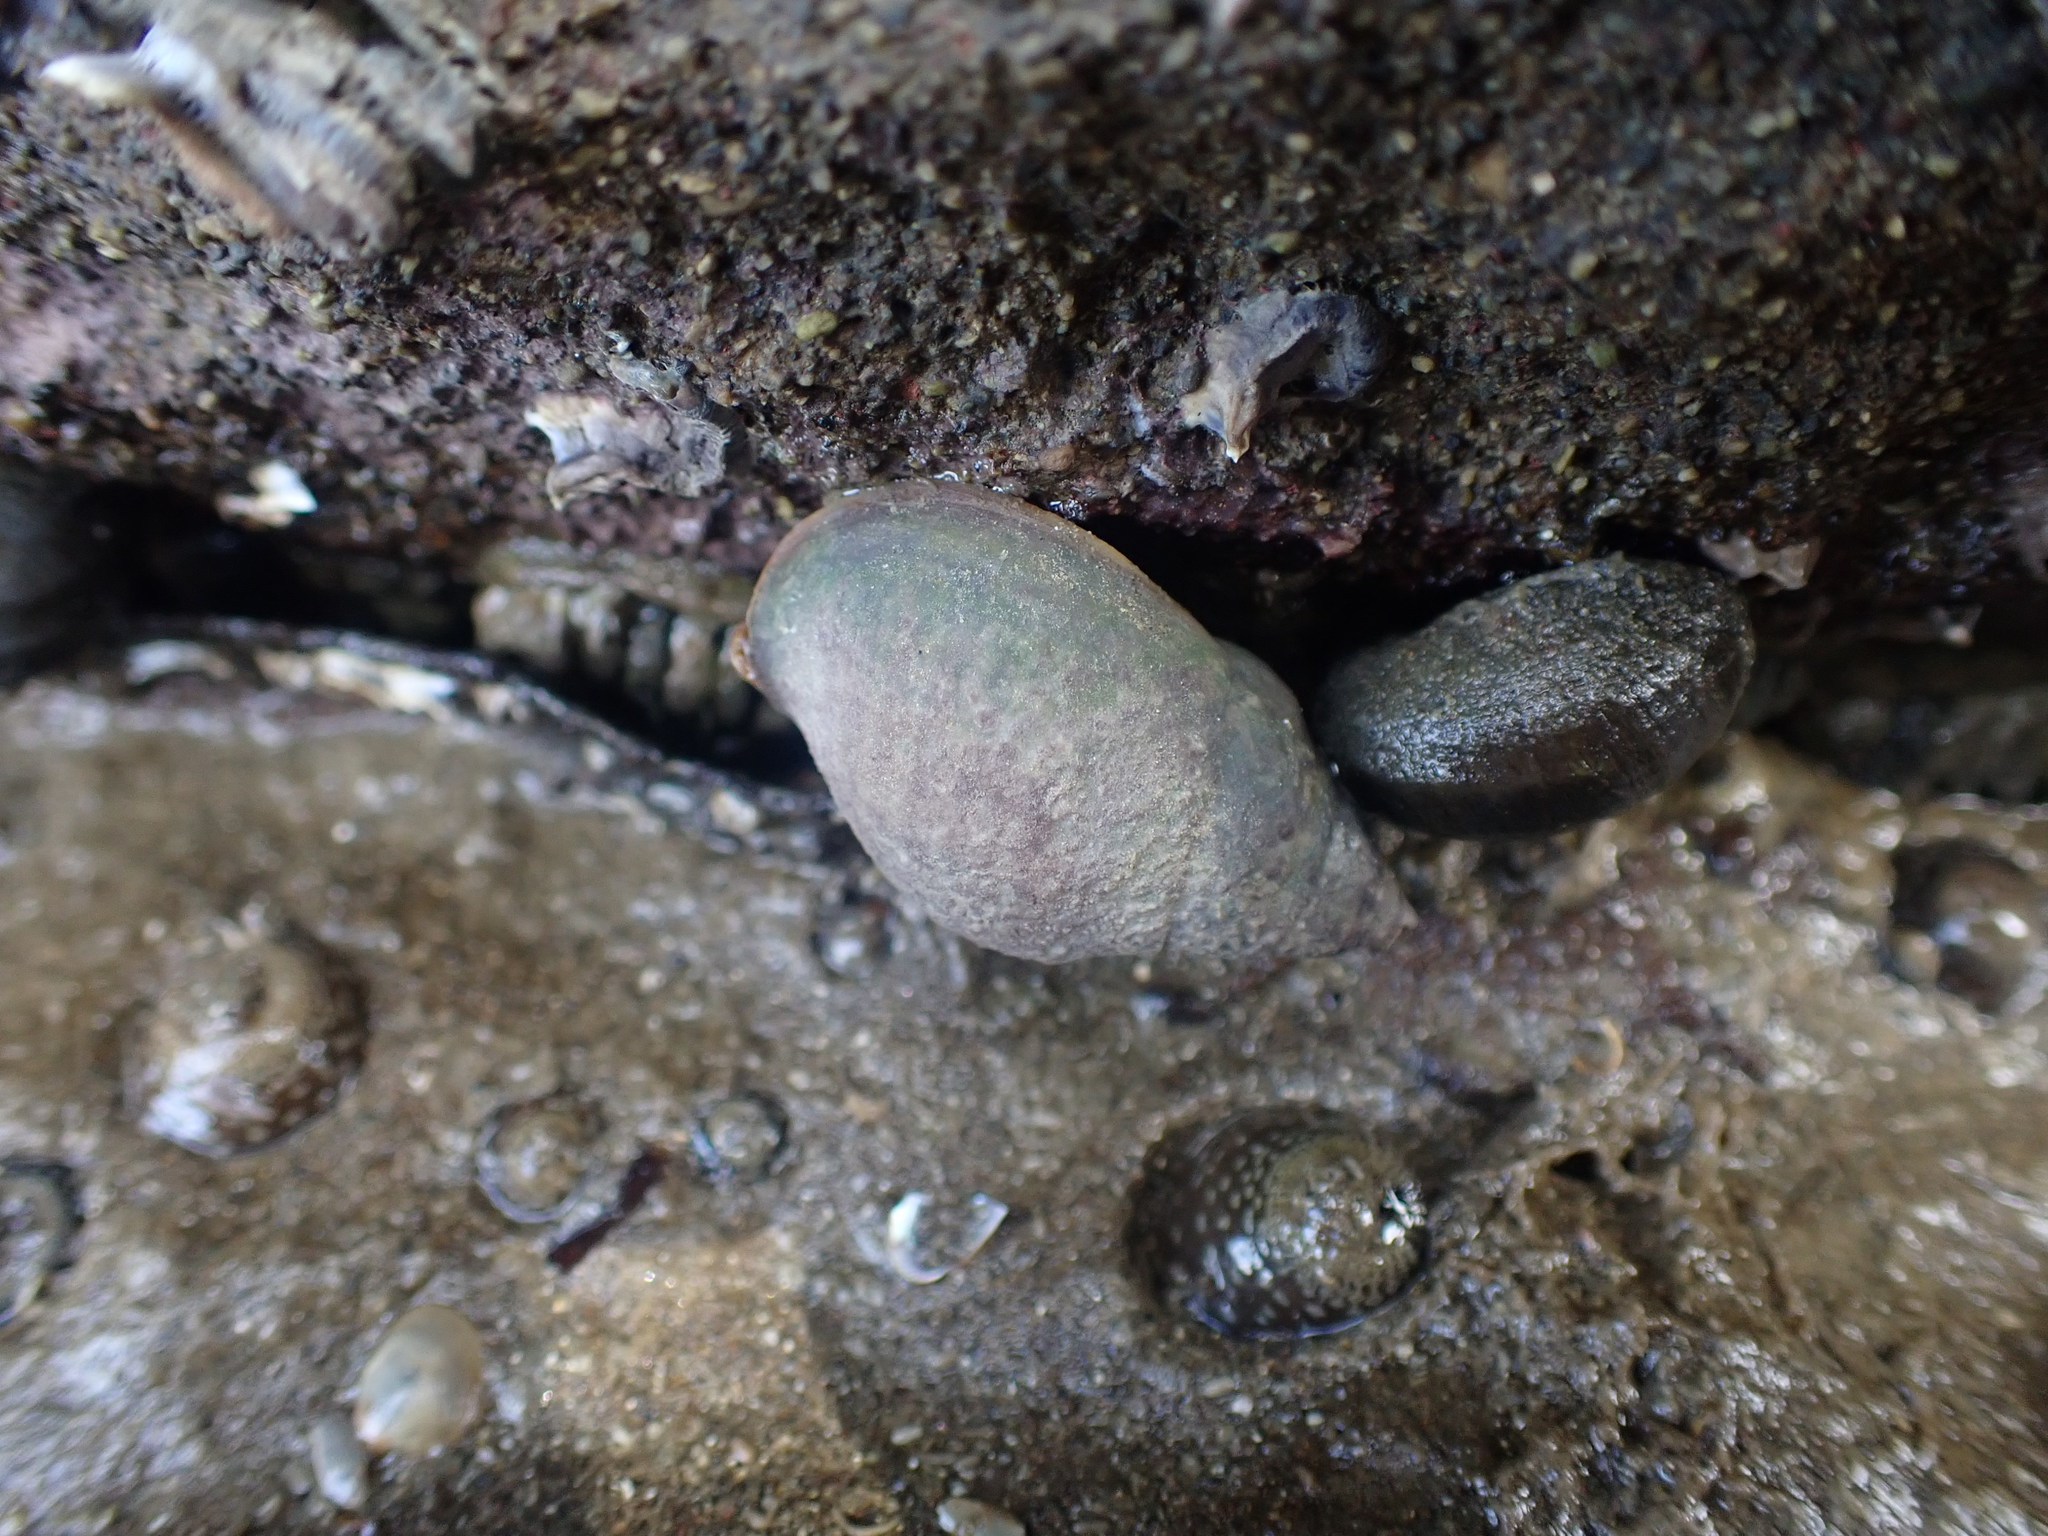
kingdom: Animalia
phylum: Mollusca
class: Gastropoda
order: Neogastropoda
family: Cominellidae
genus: Cominella
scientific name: Cominella maculosa
